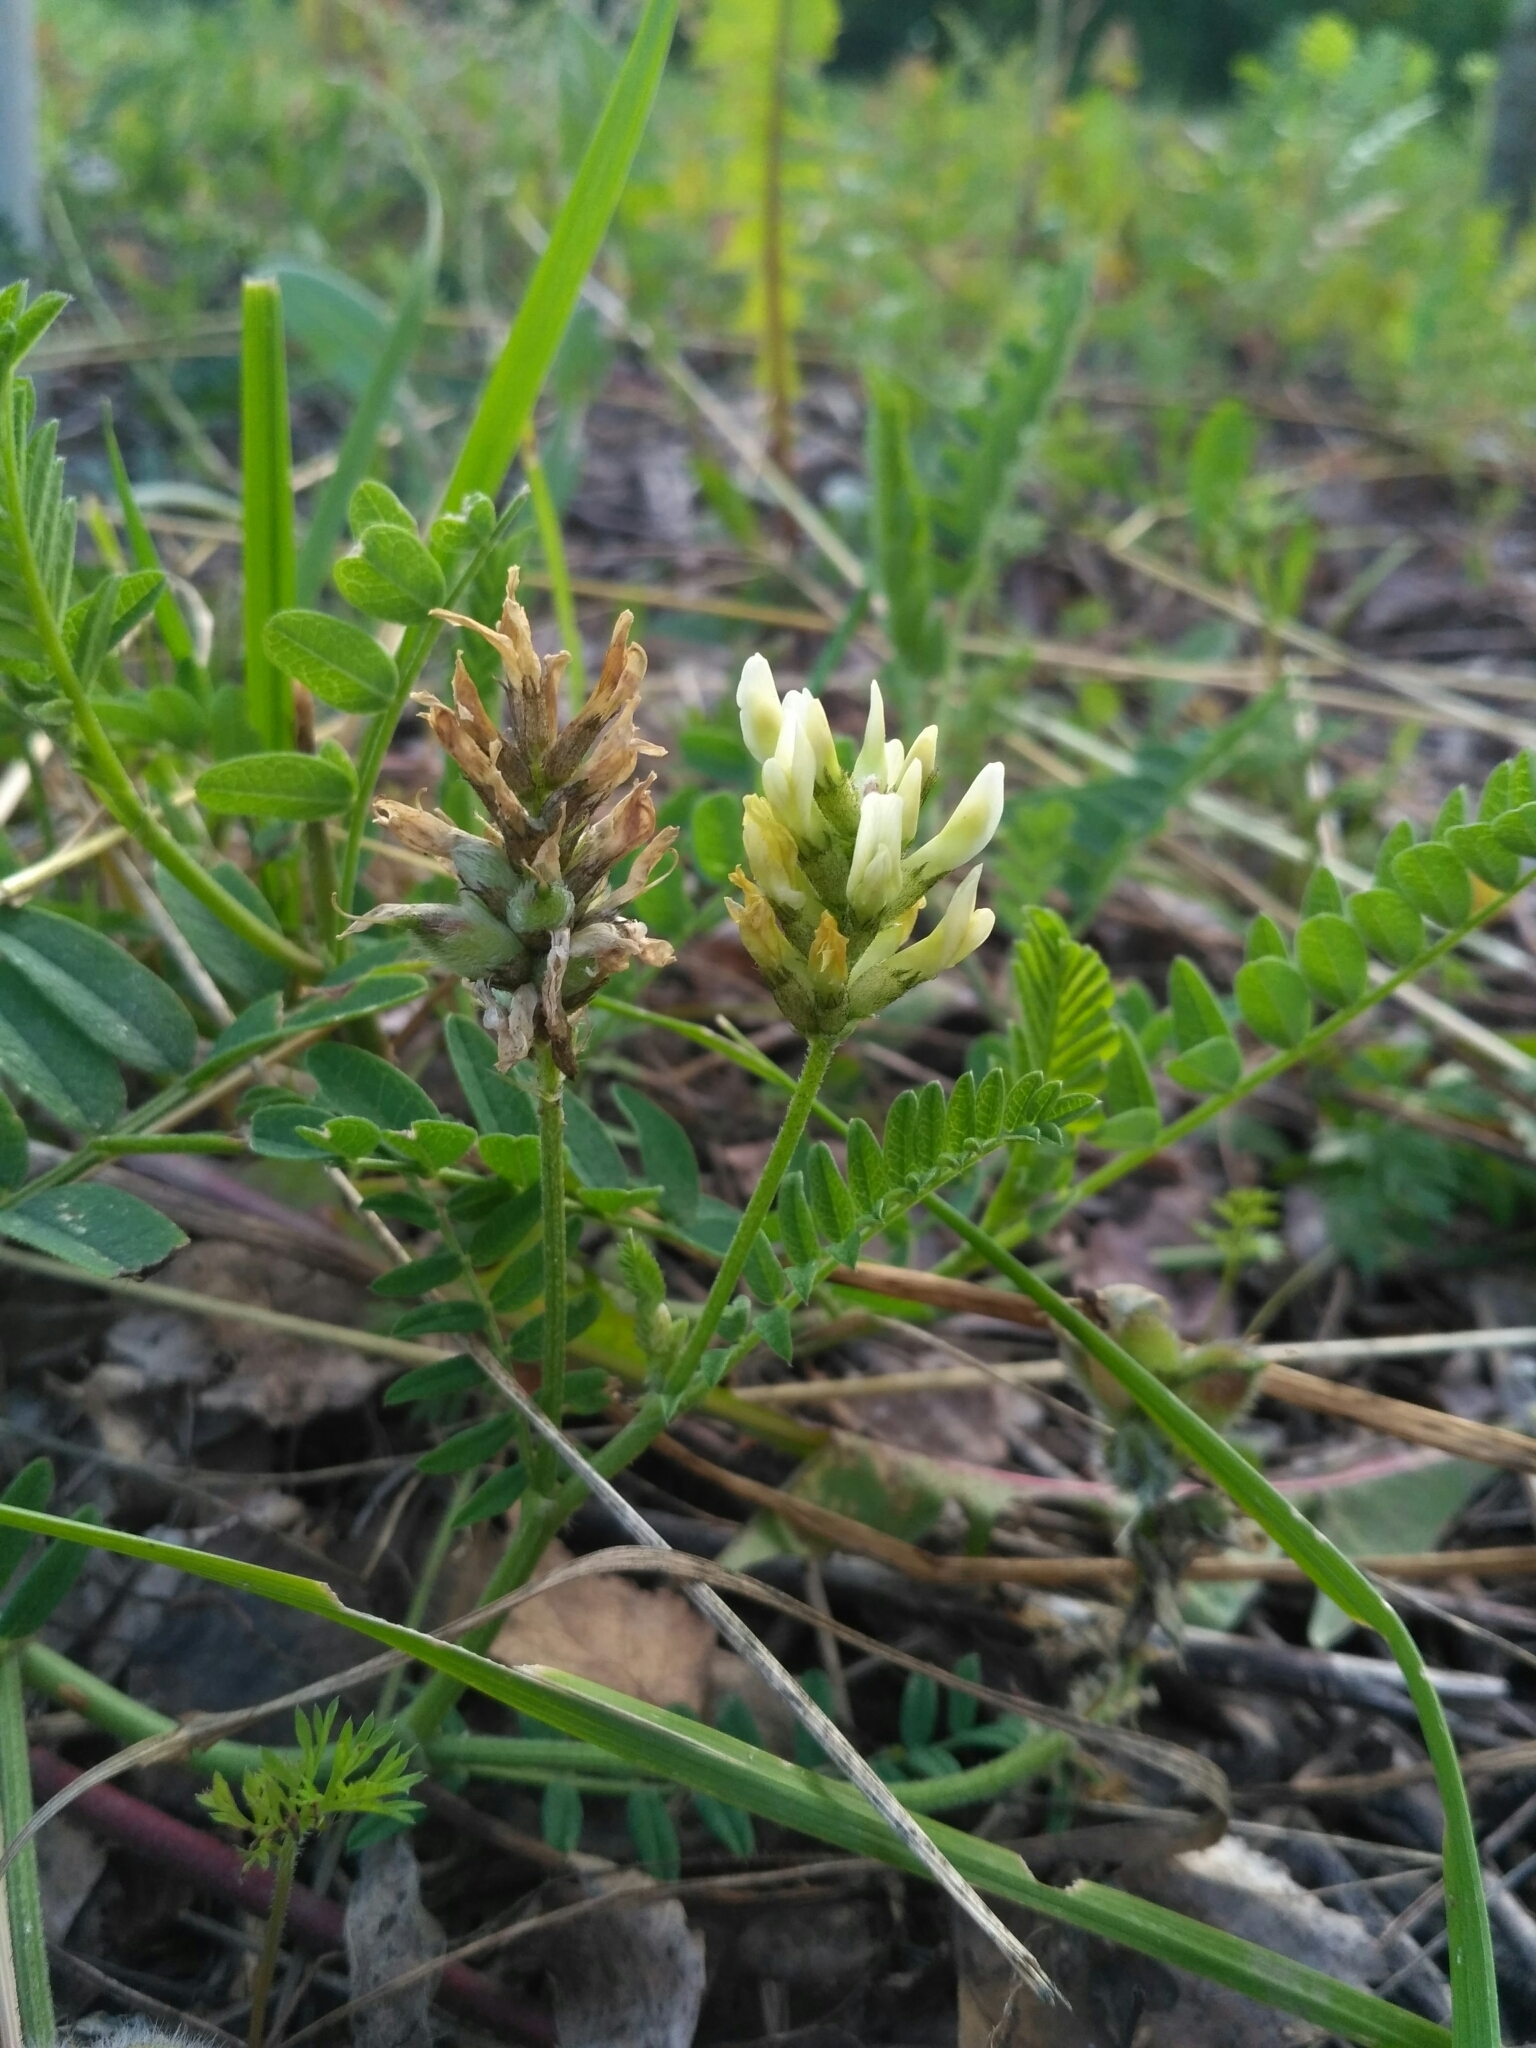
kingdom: Plantae
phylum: Tracheophyta
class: Magnoliopsida
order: Fabales
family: Fabaceae
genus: Astragalus
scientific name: Astragalus cicer
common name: Chick-pea milk-vetch
